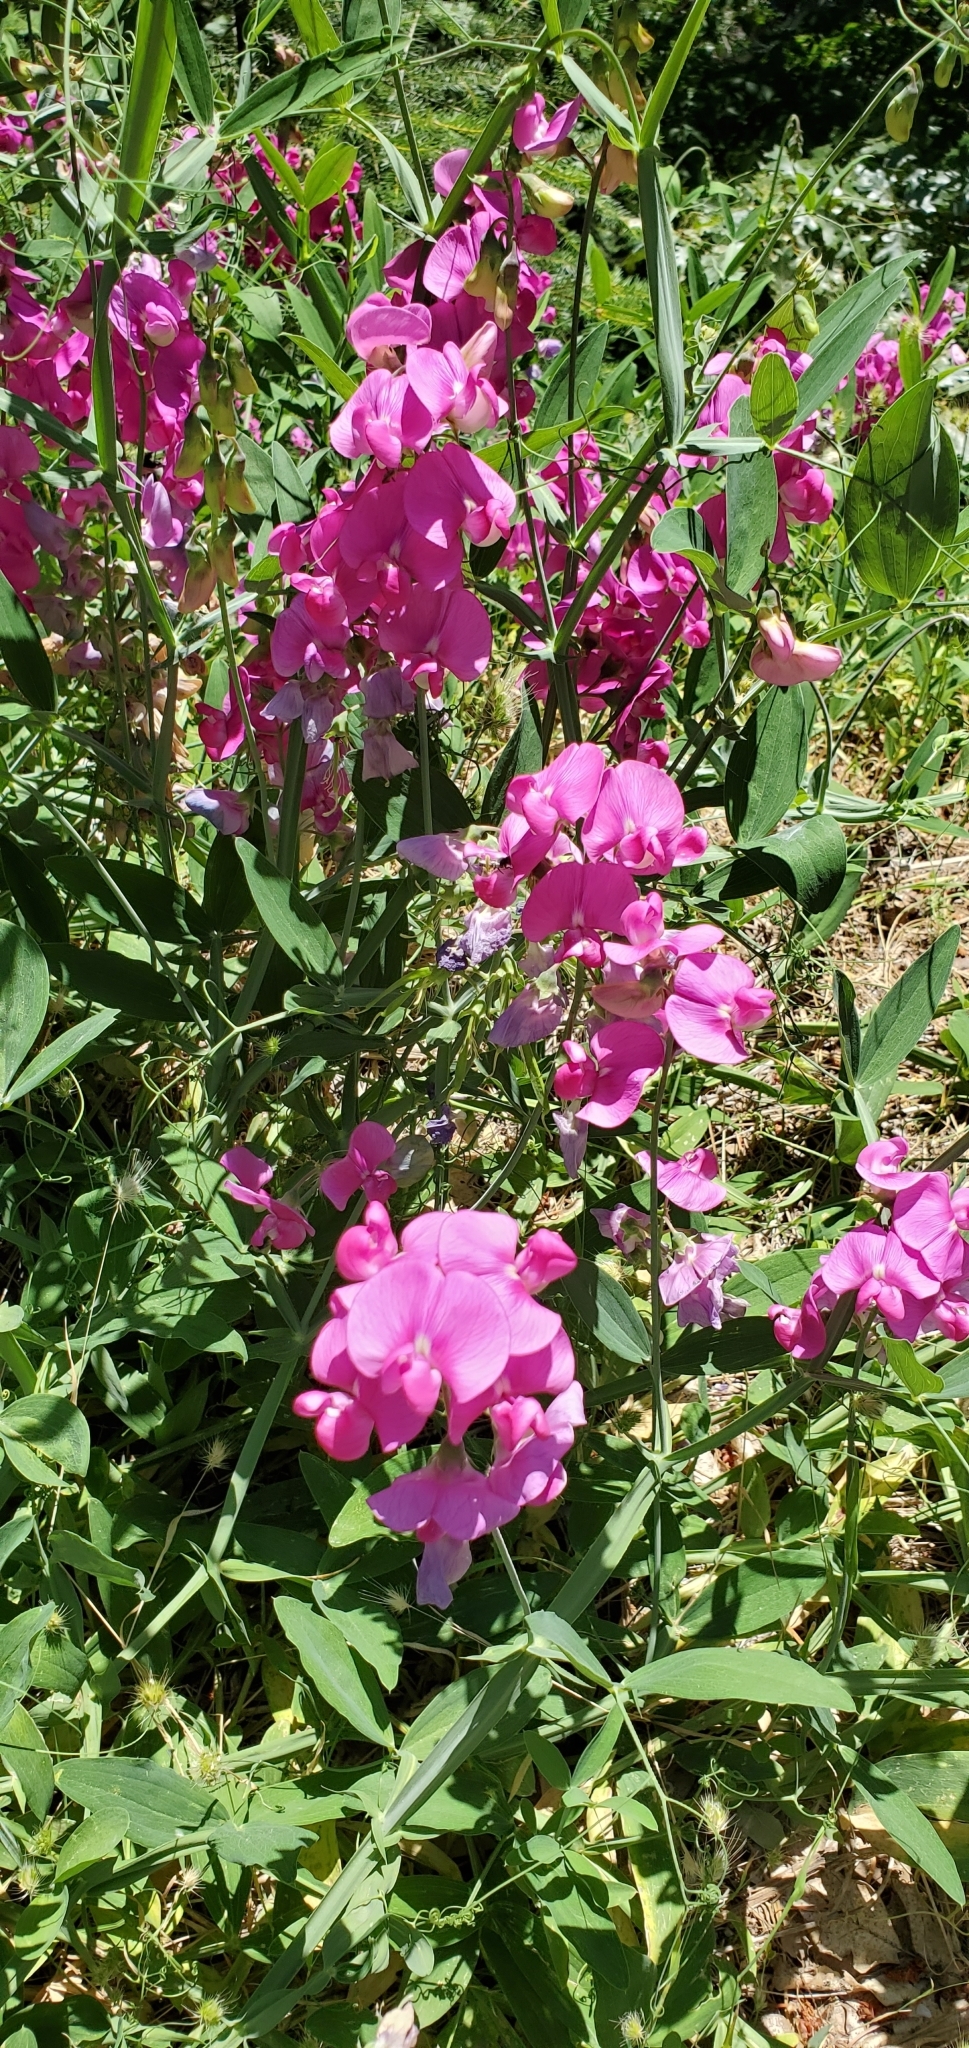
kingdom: Plantae
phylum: Tracheophyta
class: Magnoliopsida
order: Fabales
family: Fabaceae
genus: Lathyrus
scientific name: Lathyrus latifolius
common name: Perennial pea
